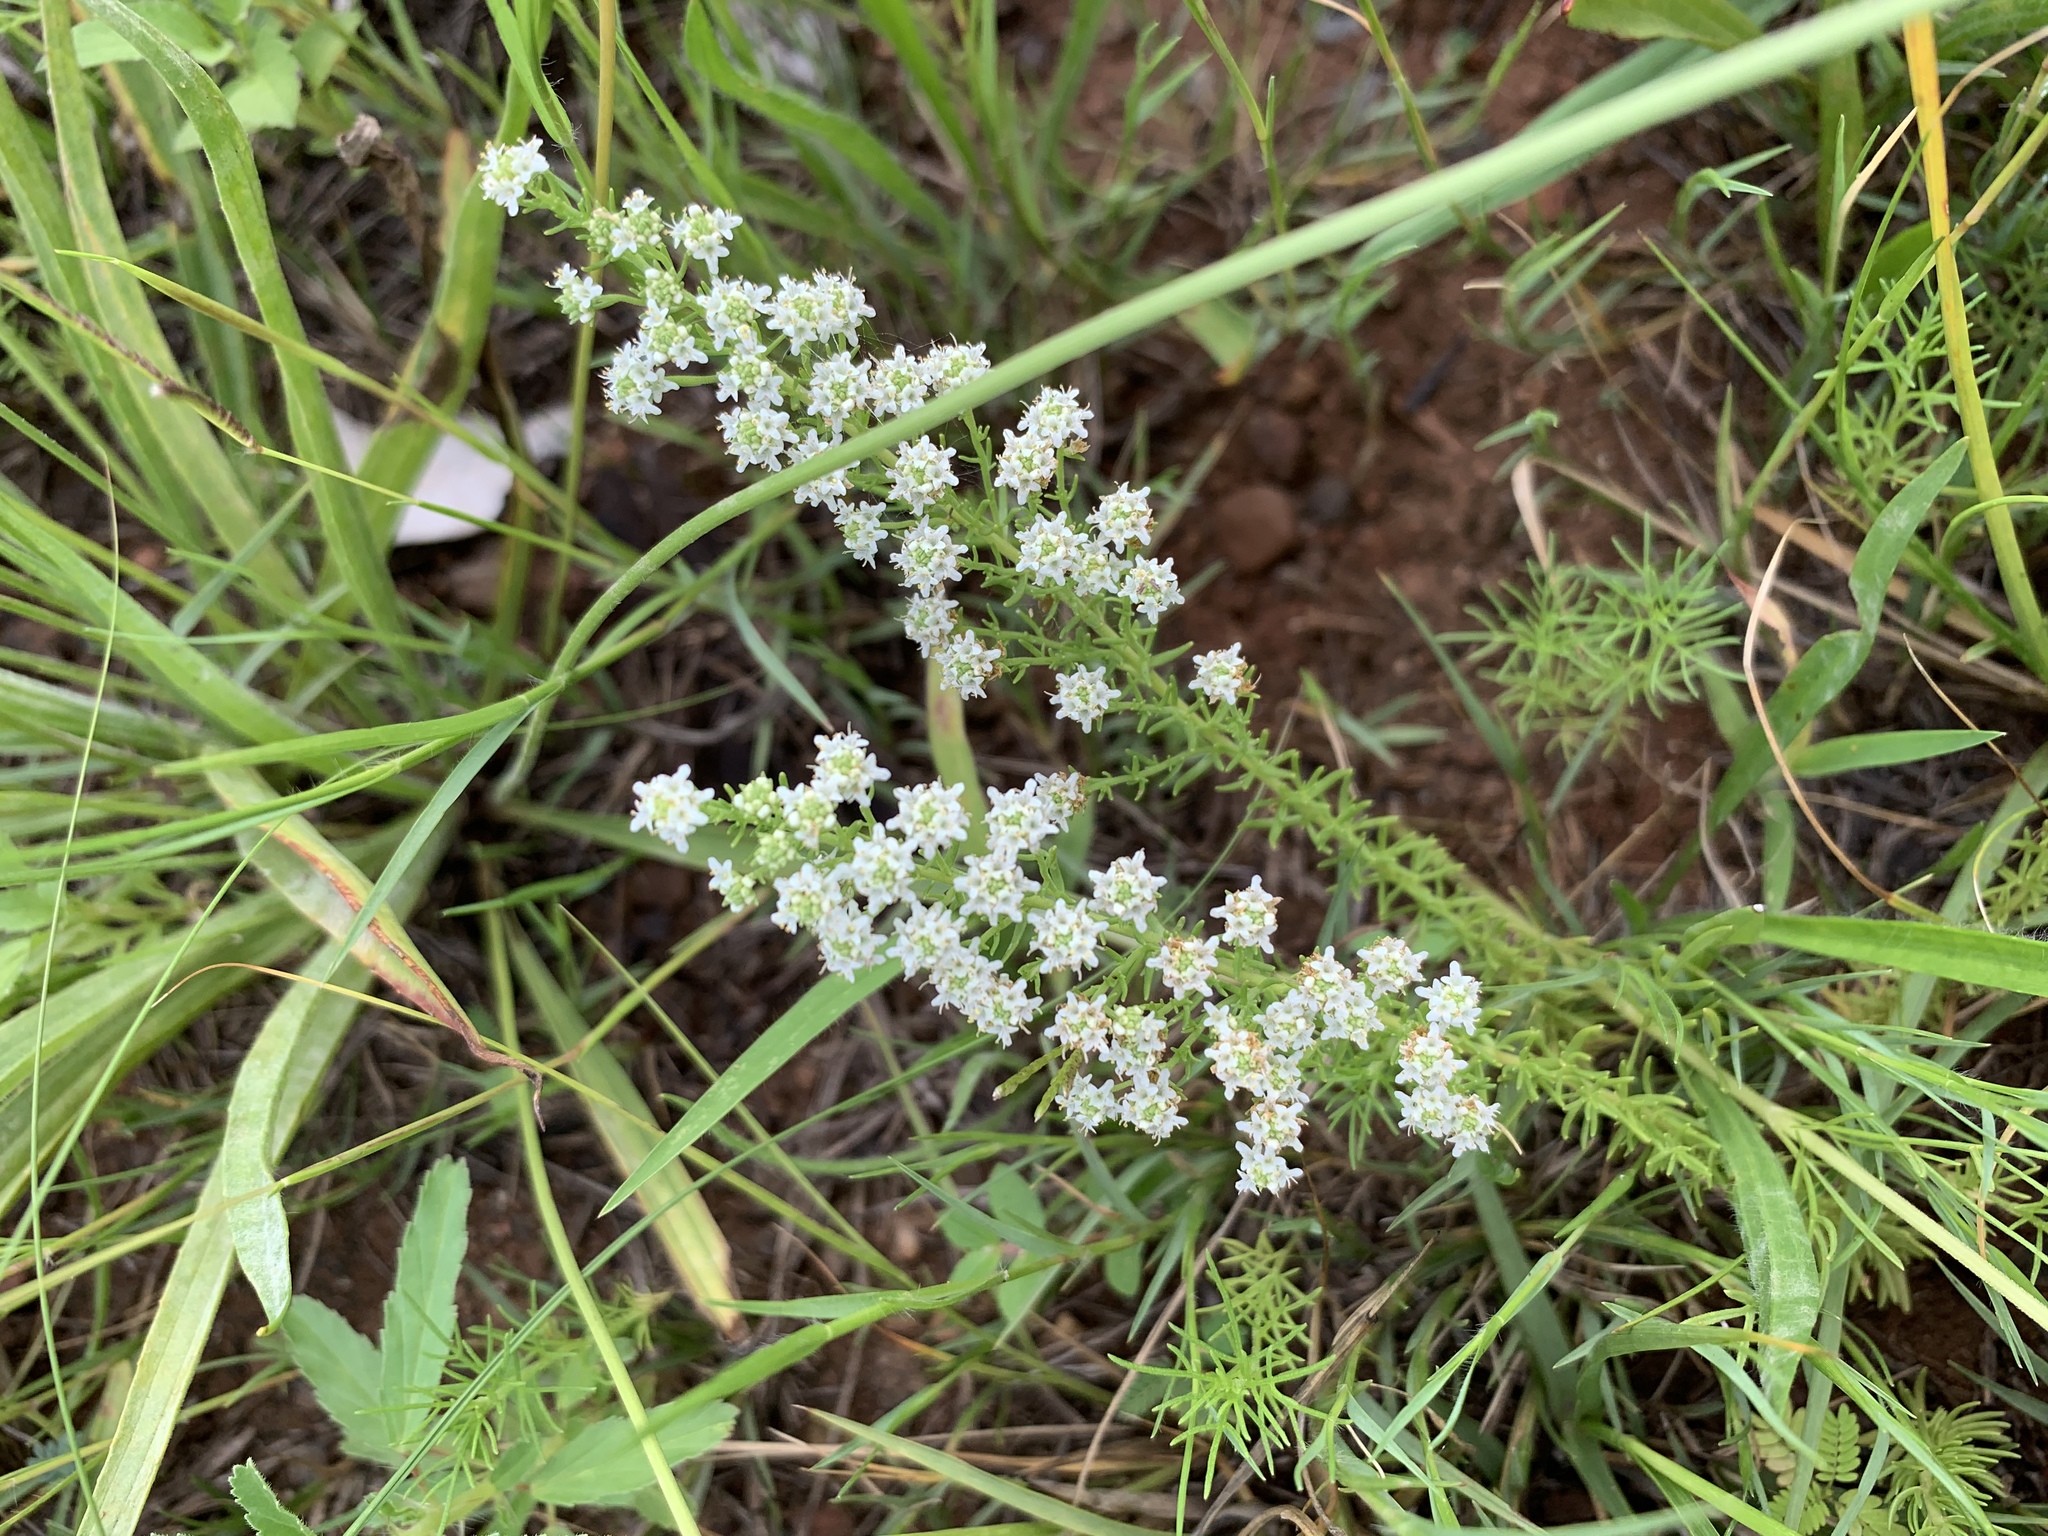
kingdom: Plantae
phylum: Tracheophyta
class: Magnoliopsida
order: Lamiales
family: Scrophulariaceae
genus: Selago
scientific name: Selago densiflora
